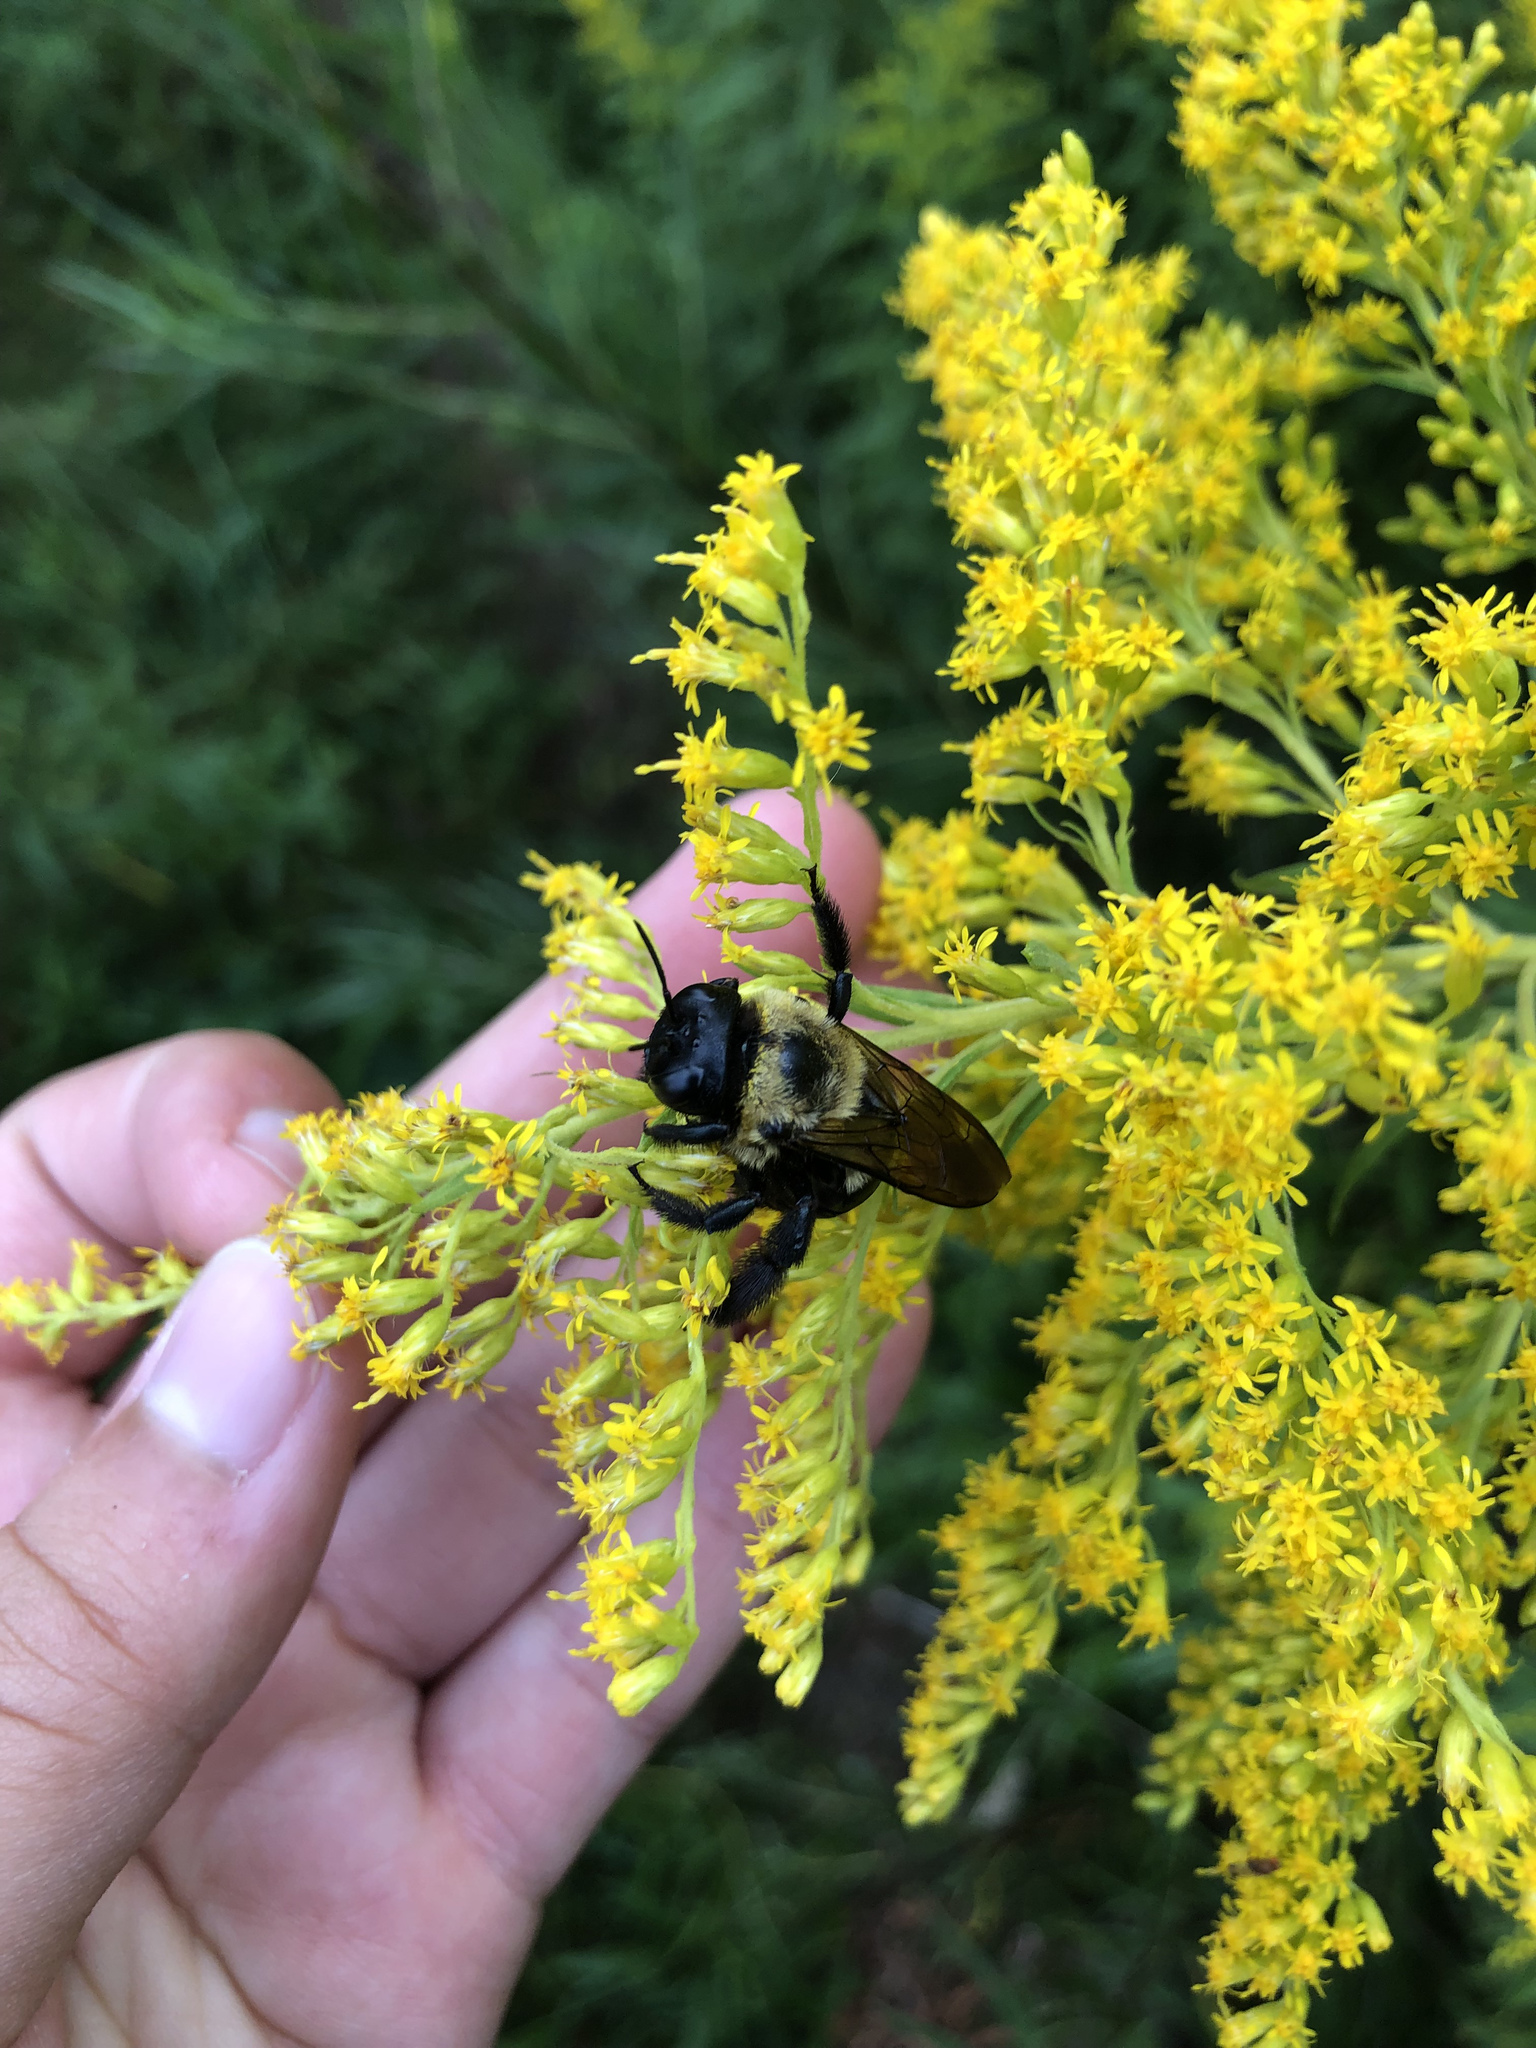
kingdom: Animalia
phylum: Arthropoda
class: Insecta
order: Hymenoptera
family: Apidae
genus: Xylocopa
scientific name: Xylocopa virginica
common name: Carpenter bee
